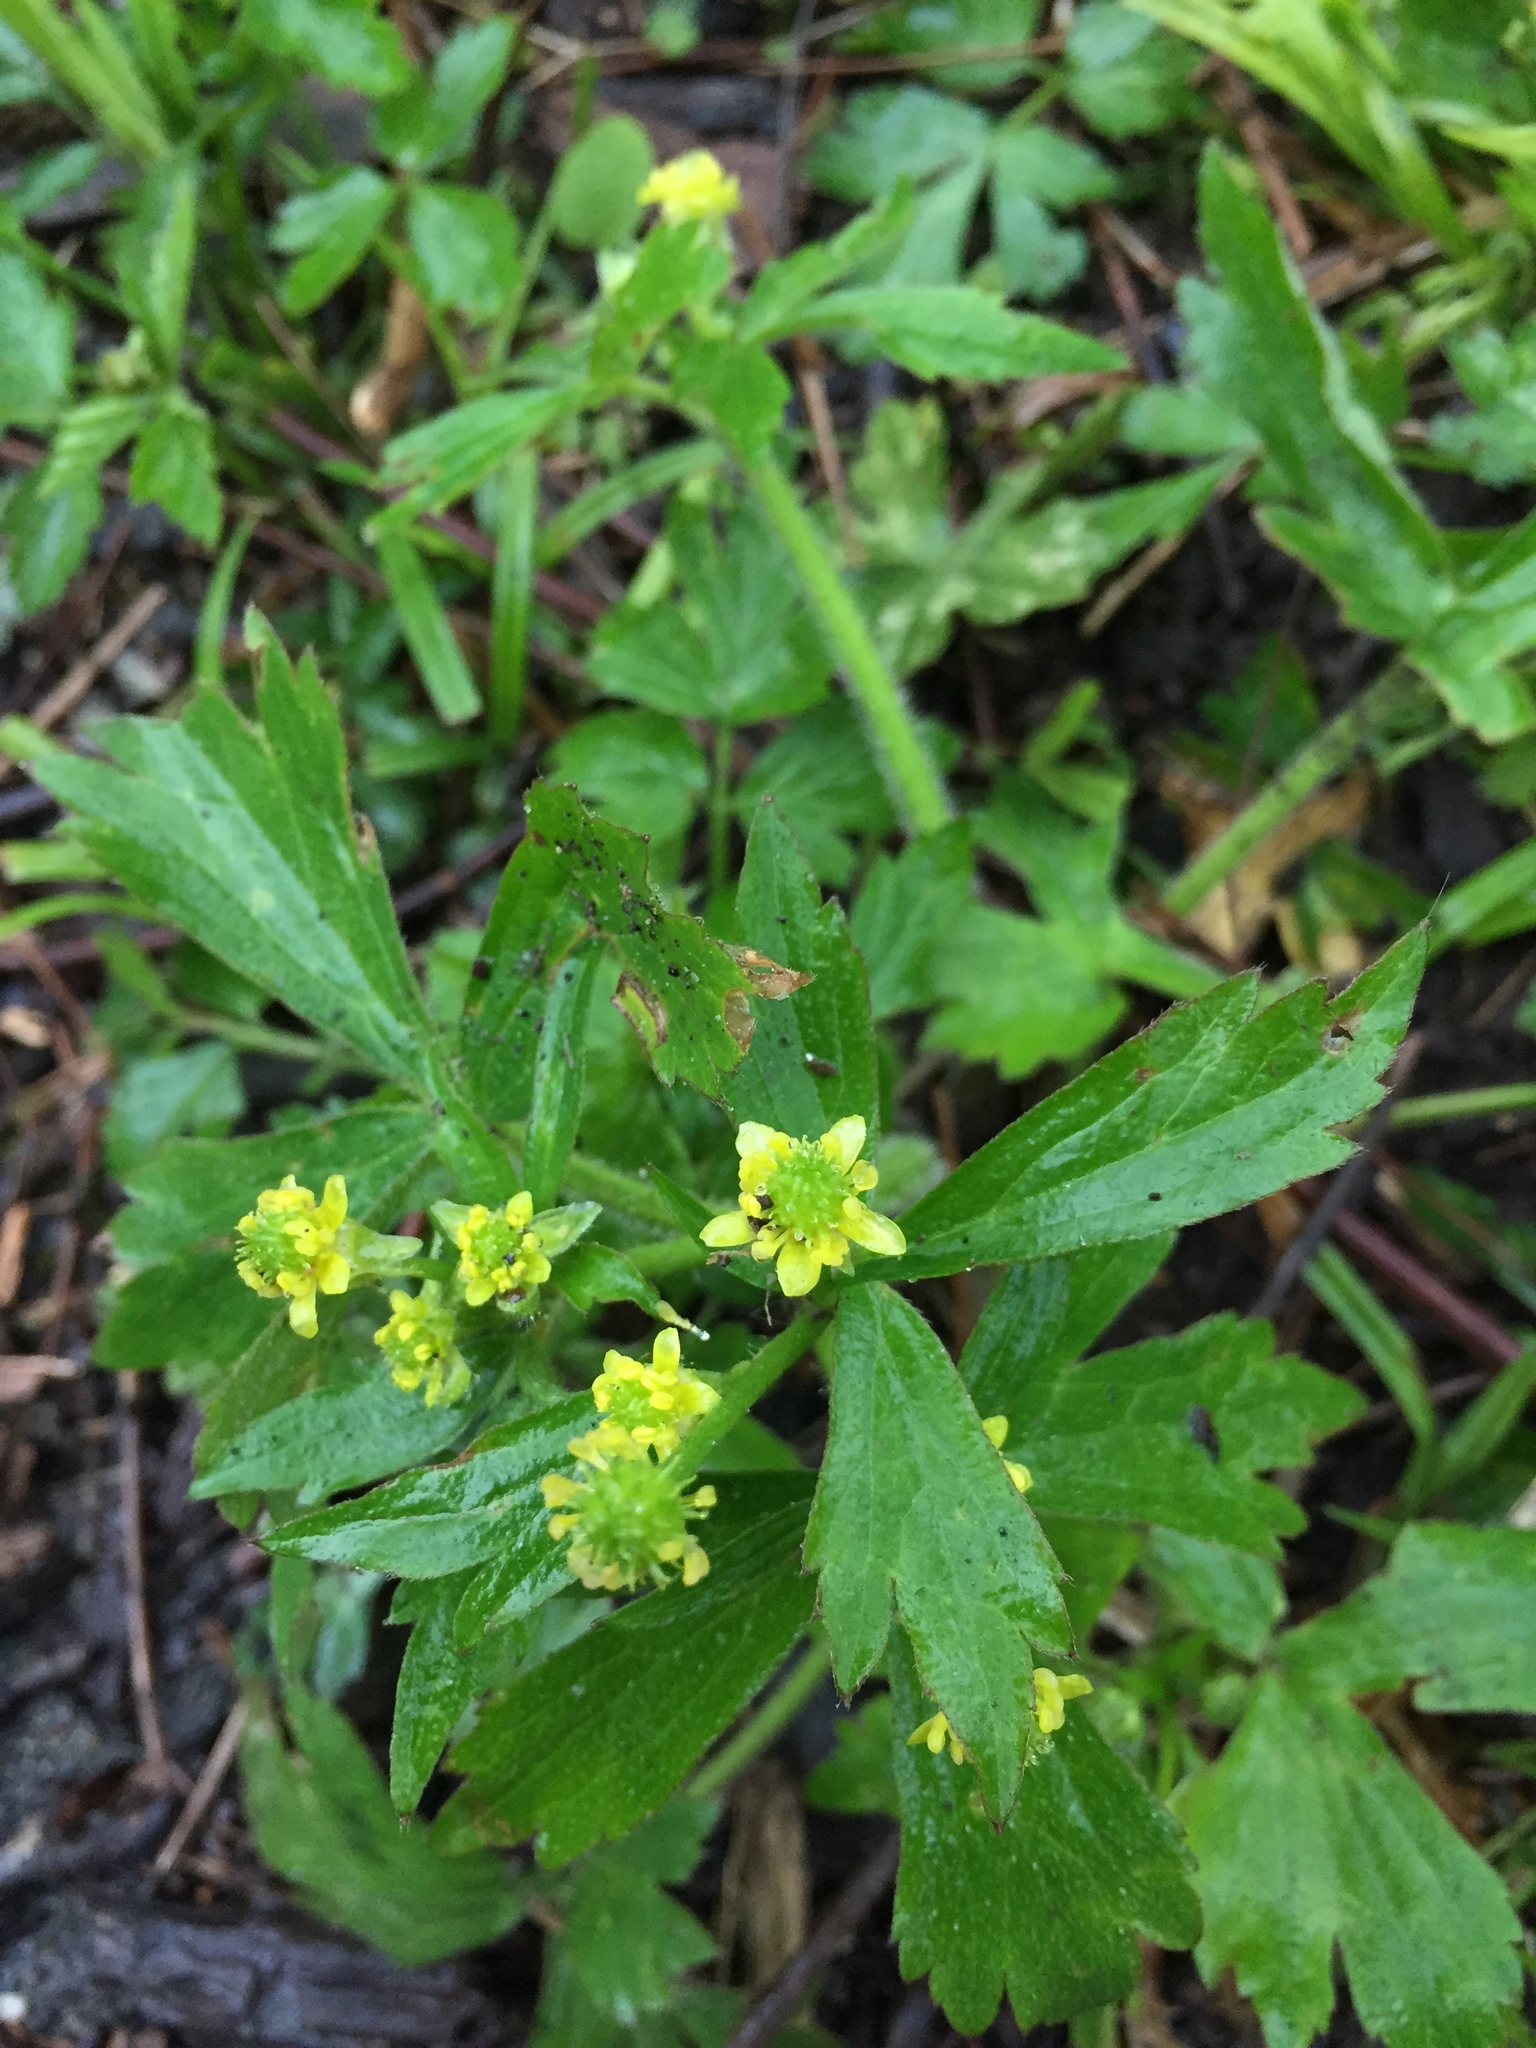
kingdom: Plantae
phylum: Tracheophyta
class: Magnoliopsida
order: Ranunculales
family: Ranunculaceae
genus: Ranunculus
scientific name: Ranunculus recurvatus
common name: Blisterwort
